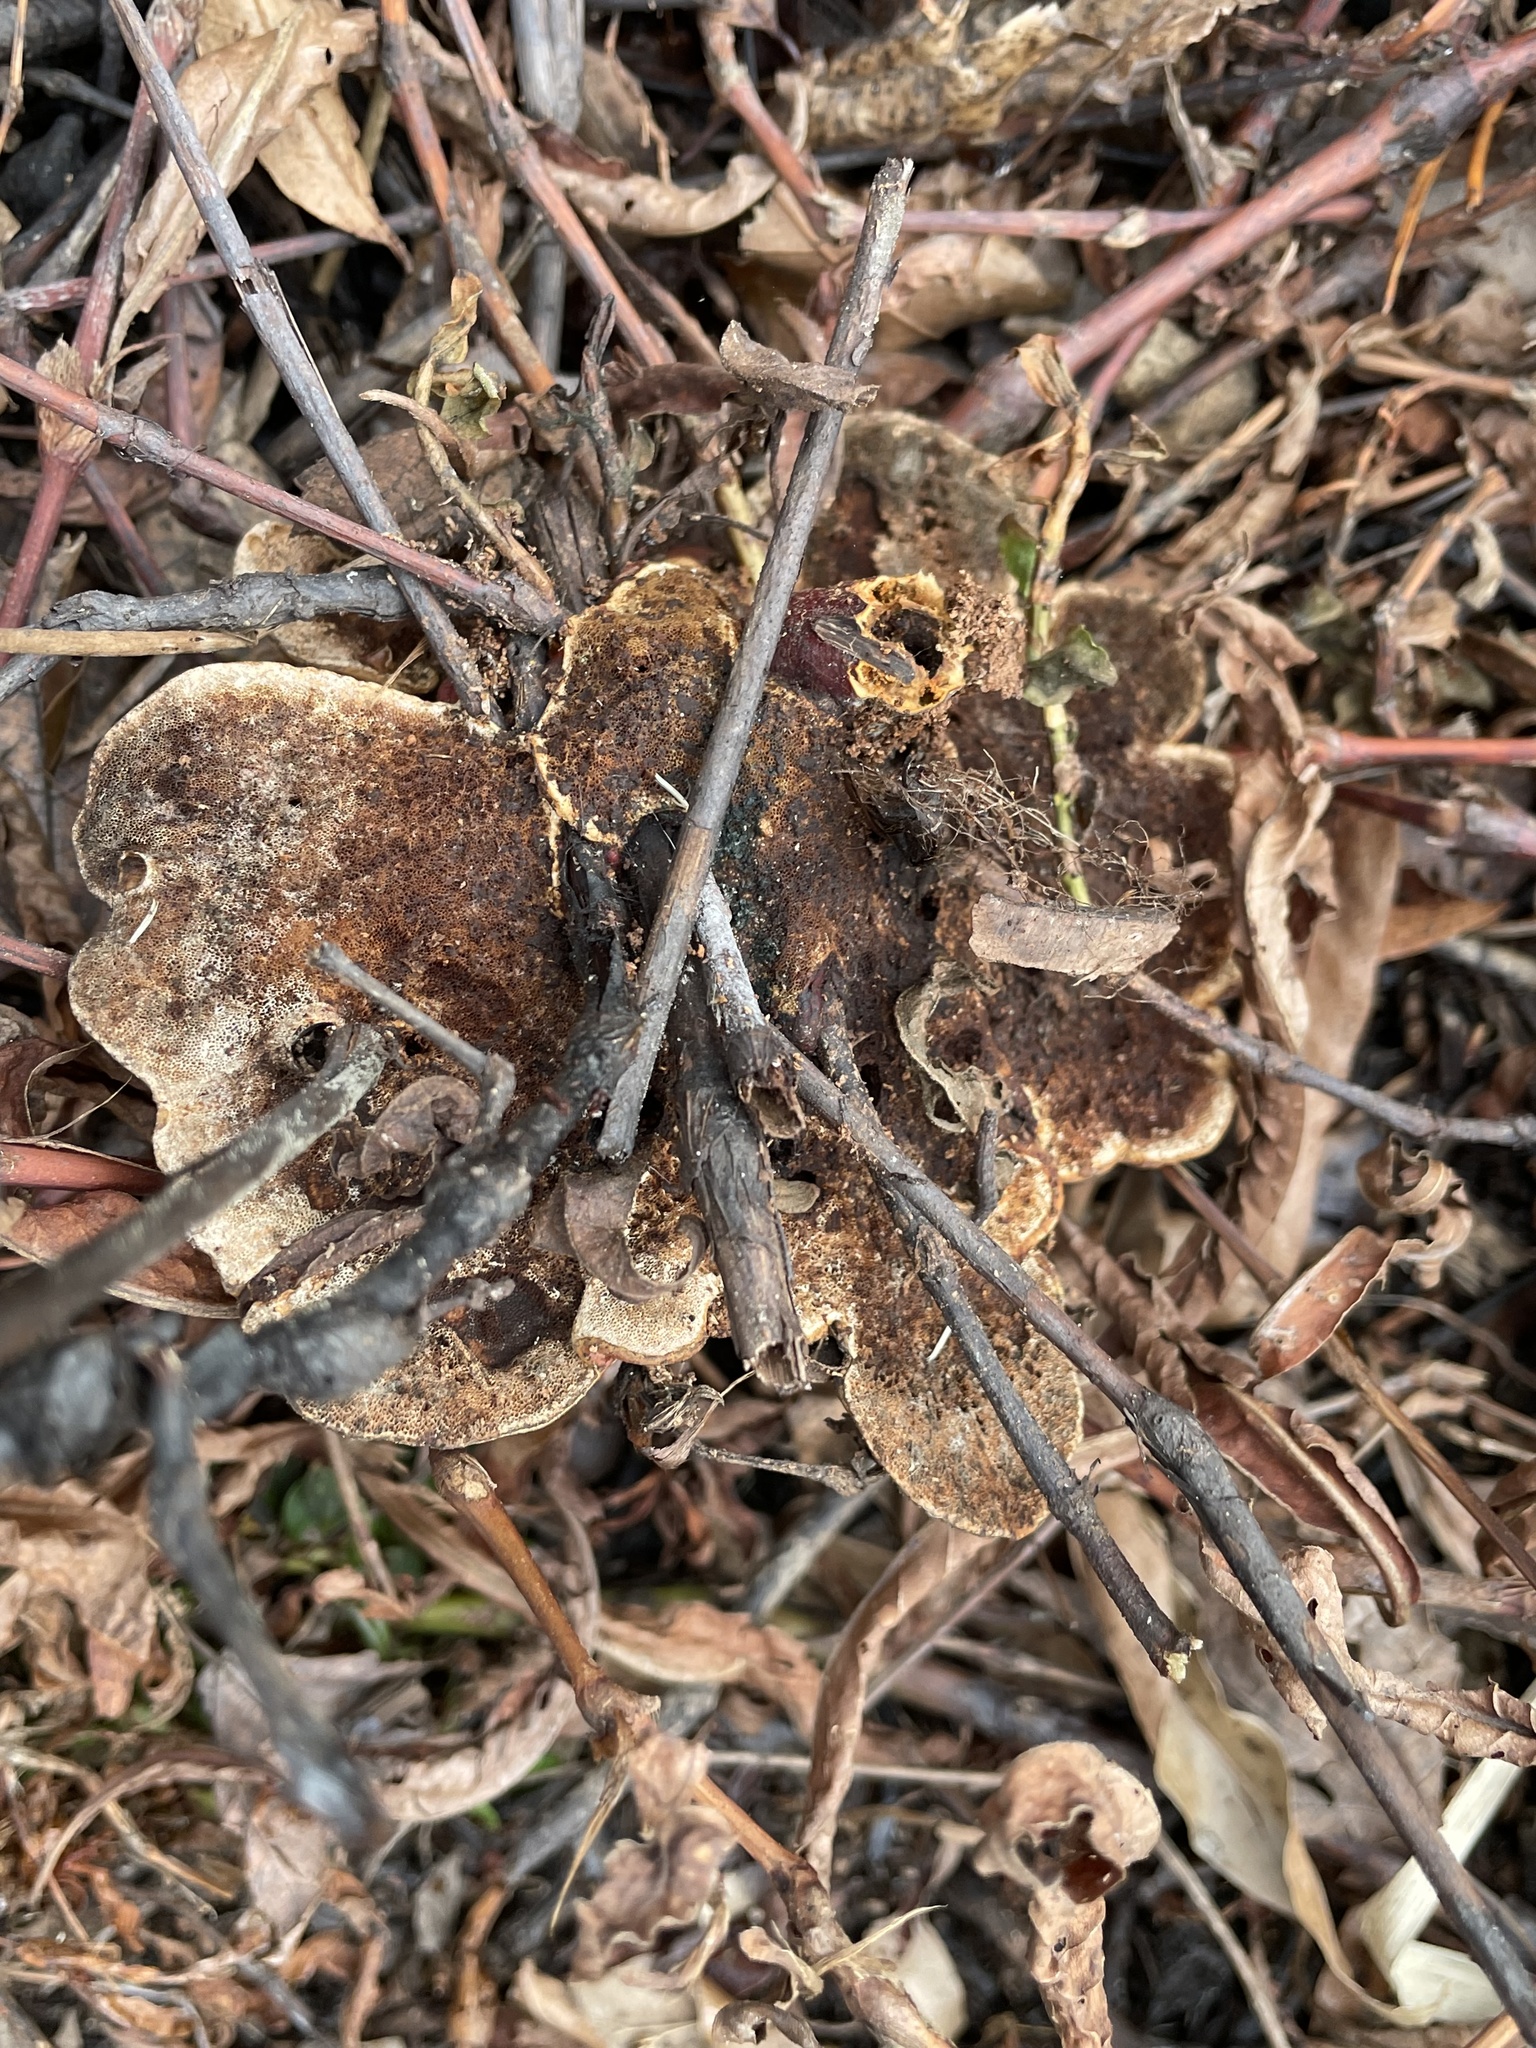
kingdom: Fungi
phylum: Basidiomycota
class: Agaricomycetes
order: Polyporales
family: Polyporaceae
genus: Ganoderma
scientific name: Ganoderma resinaceum
